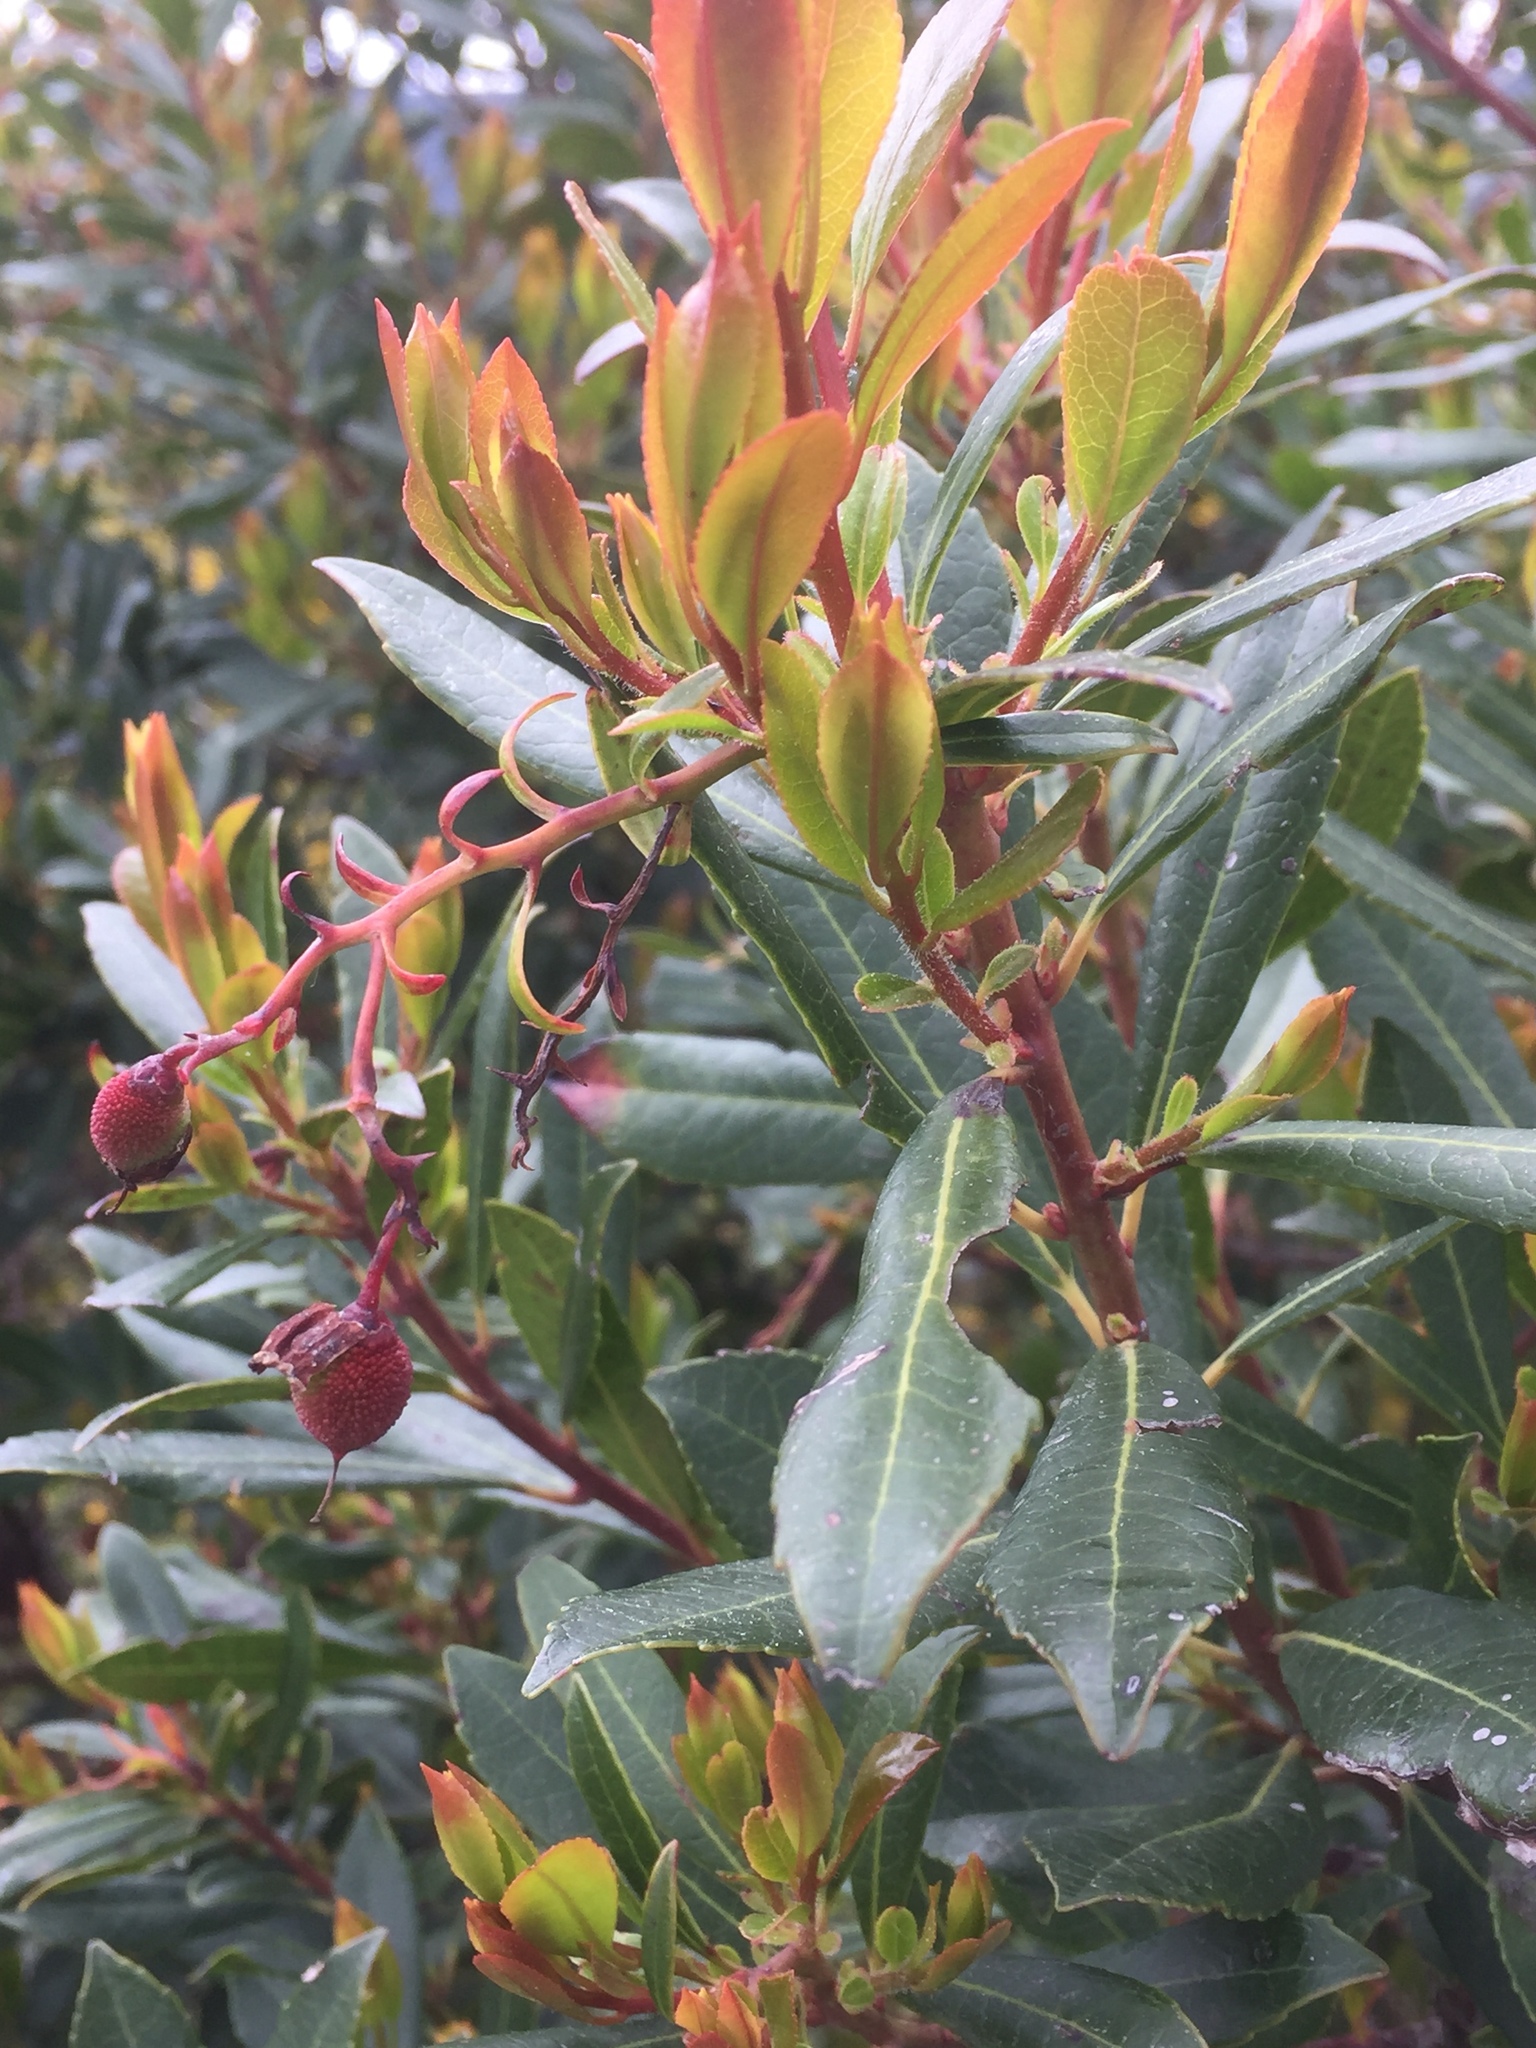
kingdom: Plantae
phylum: Tracheophyta
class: Magnoliopsida
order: Ericales
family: Ericaceae
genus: Arbutus
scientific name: Arbutus unedo
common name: Strawberry-tree
